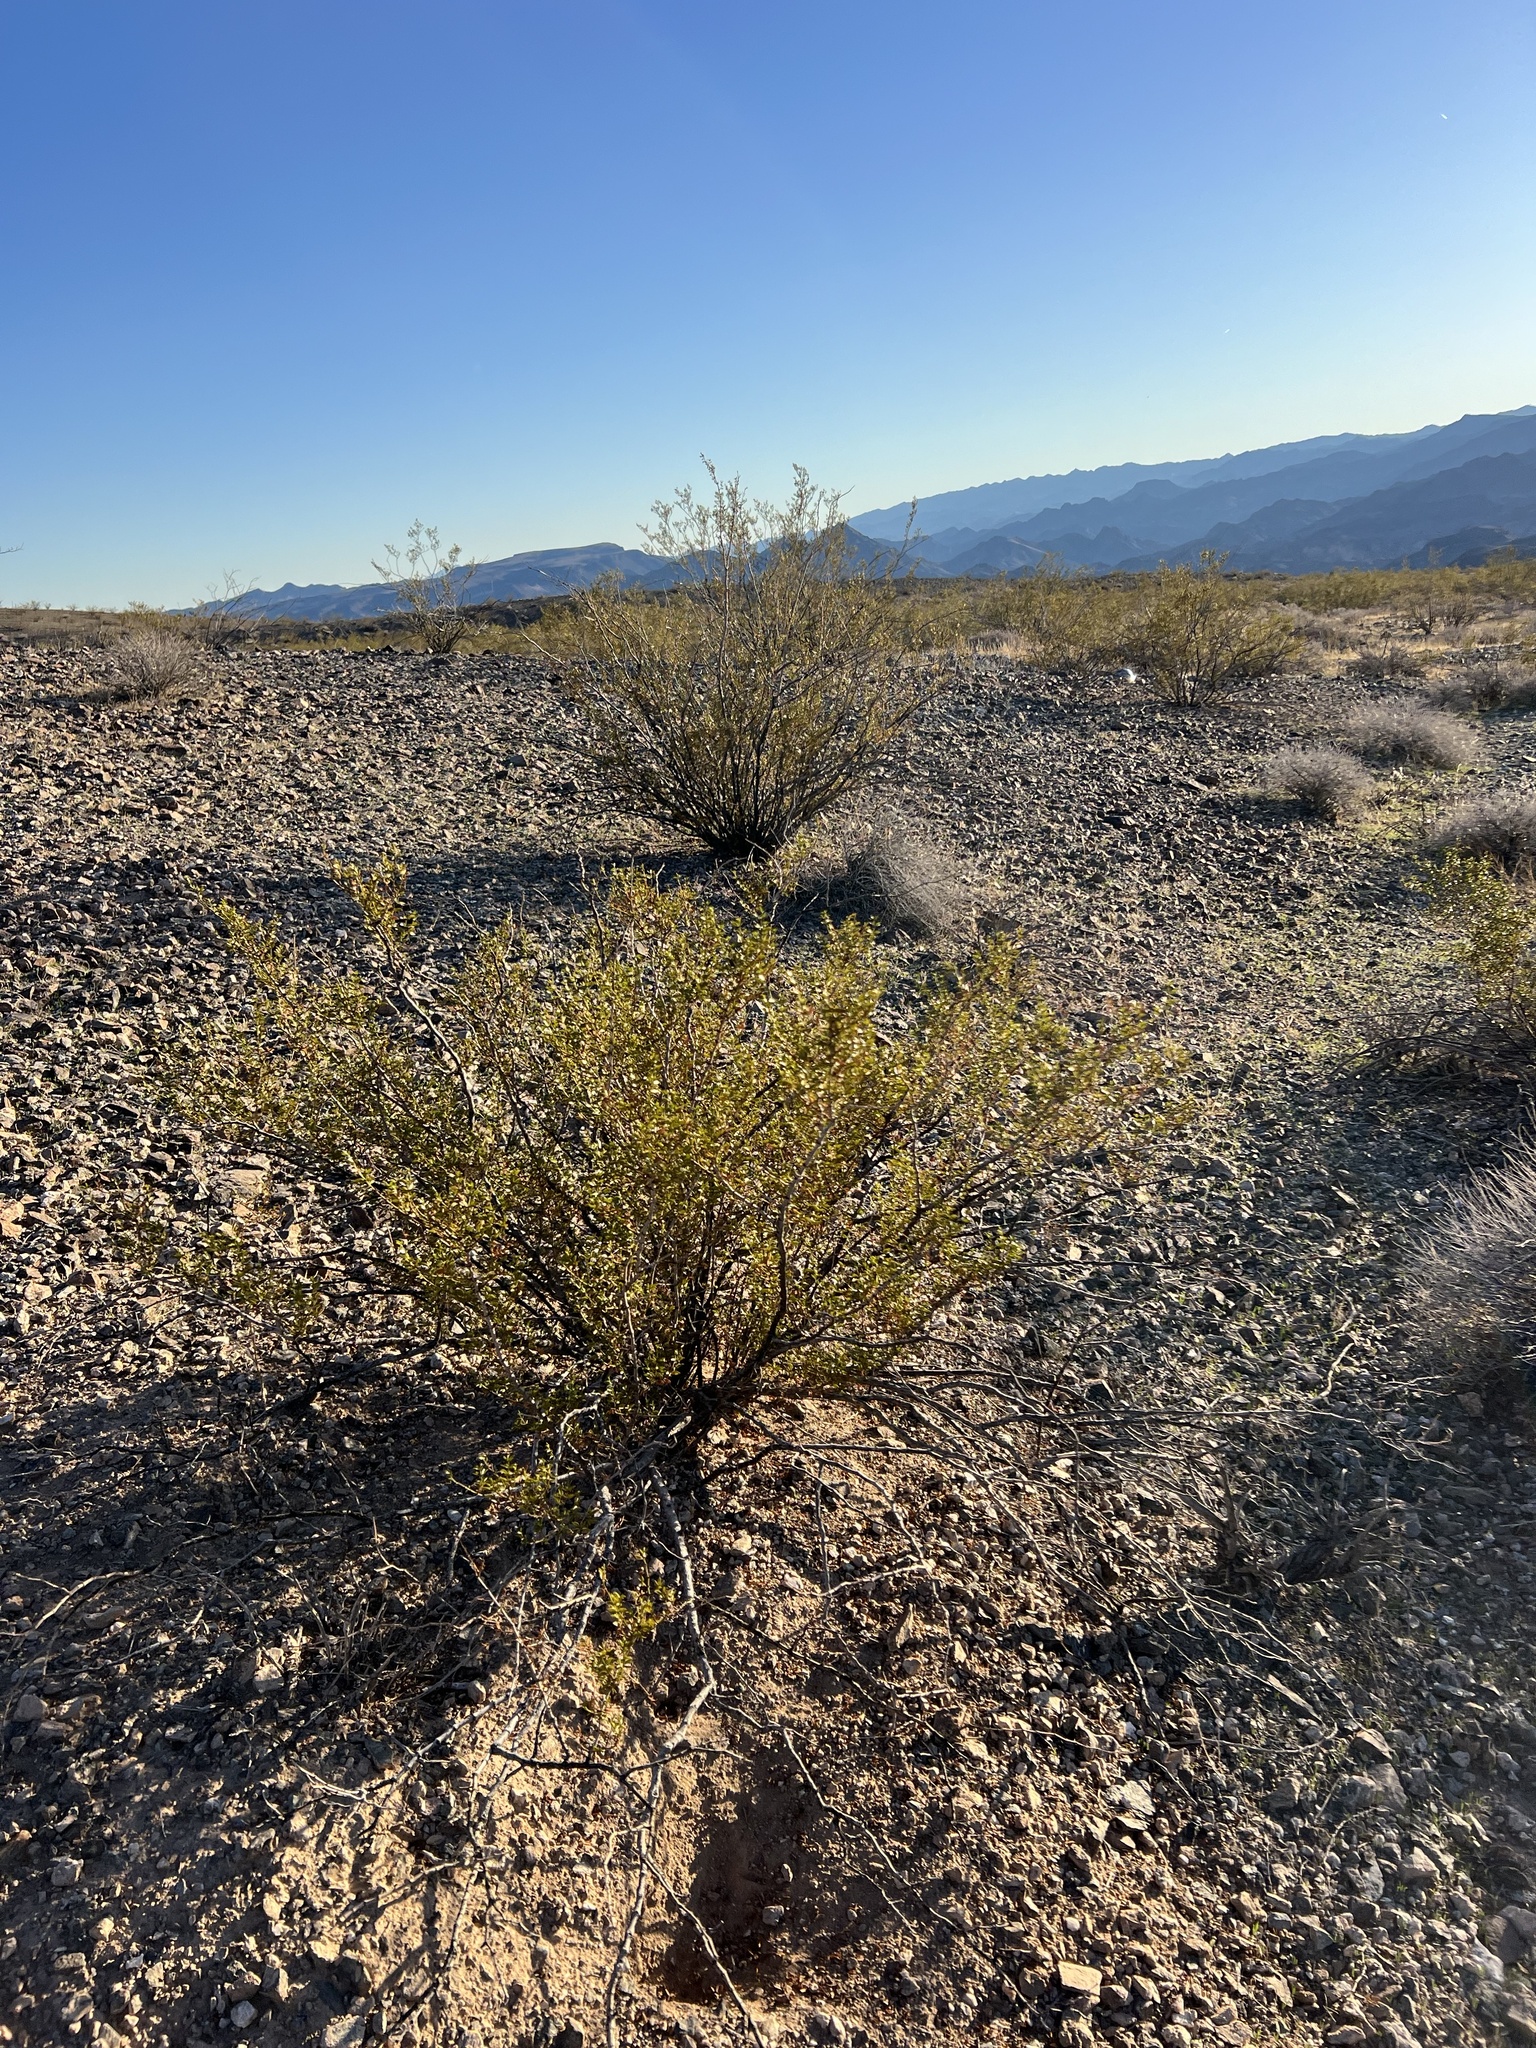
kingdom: Plantae
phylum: Tracheophyta
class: Magnoliopsida
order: Zygophyllales
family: Zygophyllaceae
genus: Larrea
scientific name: Larrea tridentata
